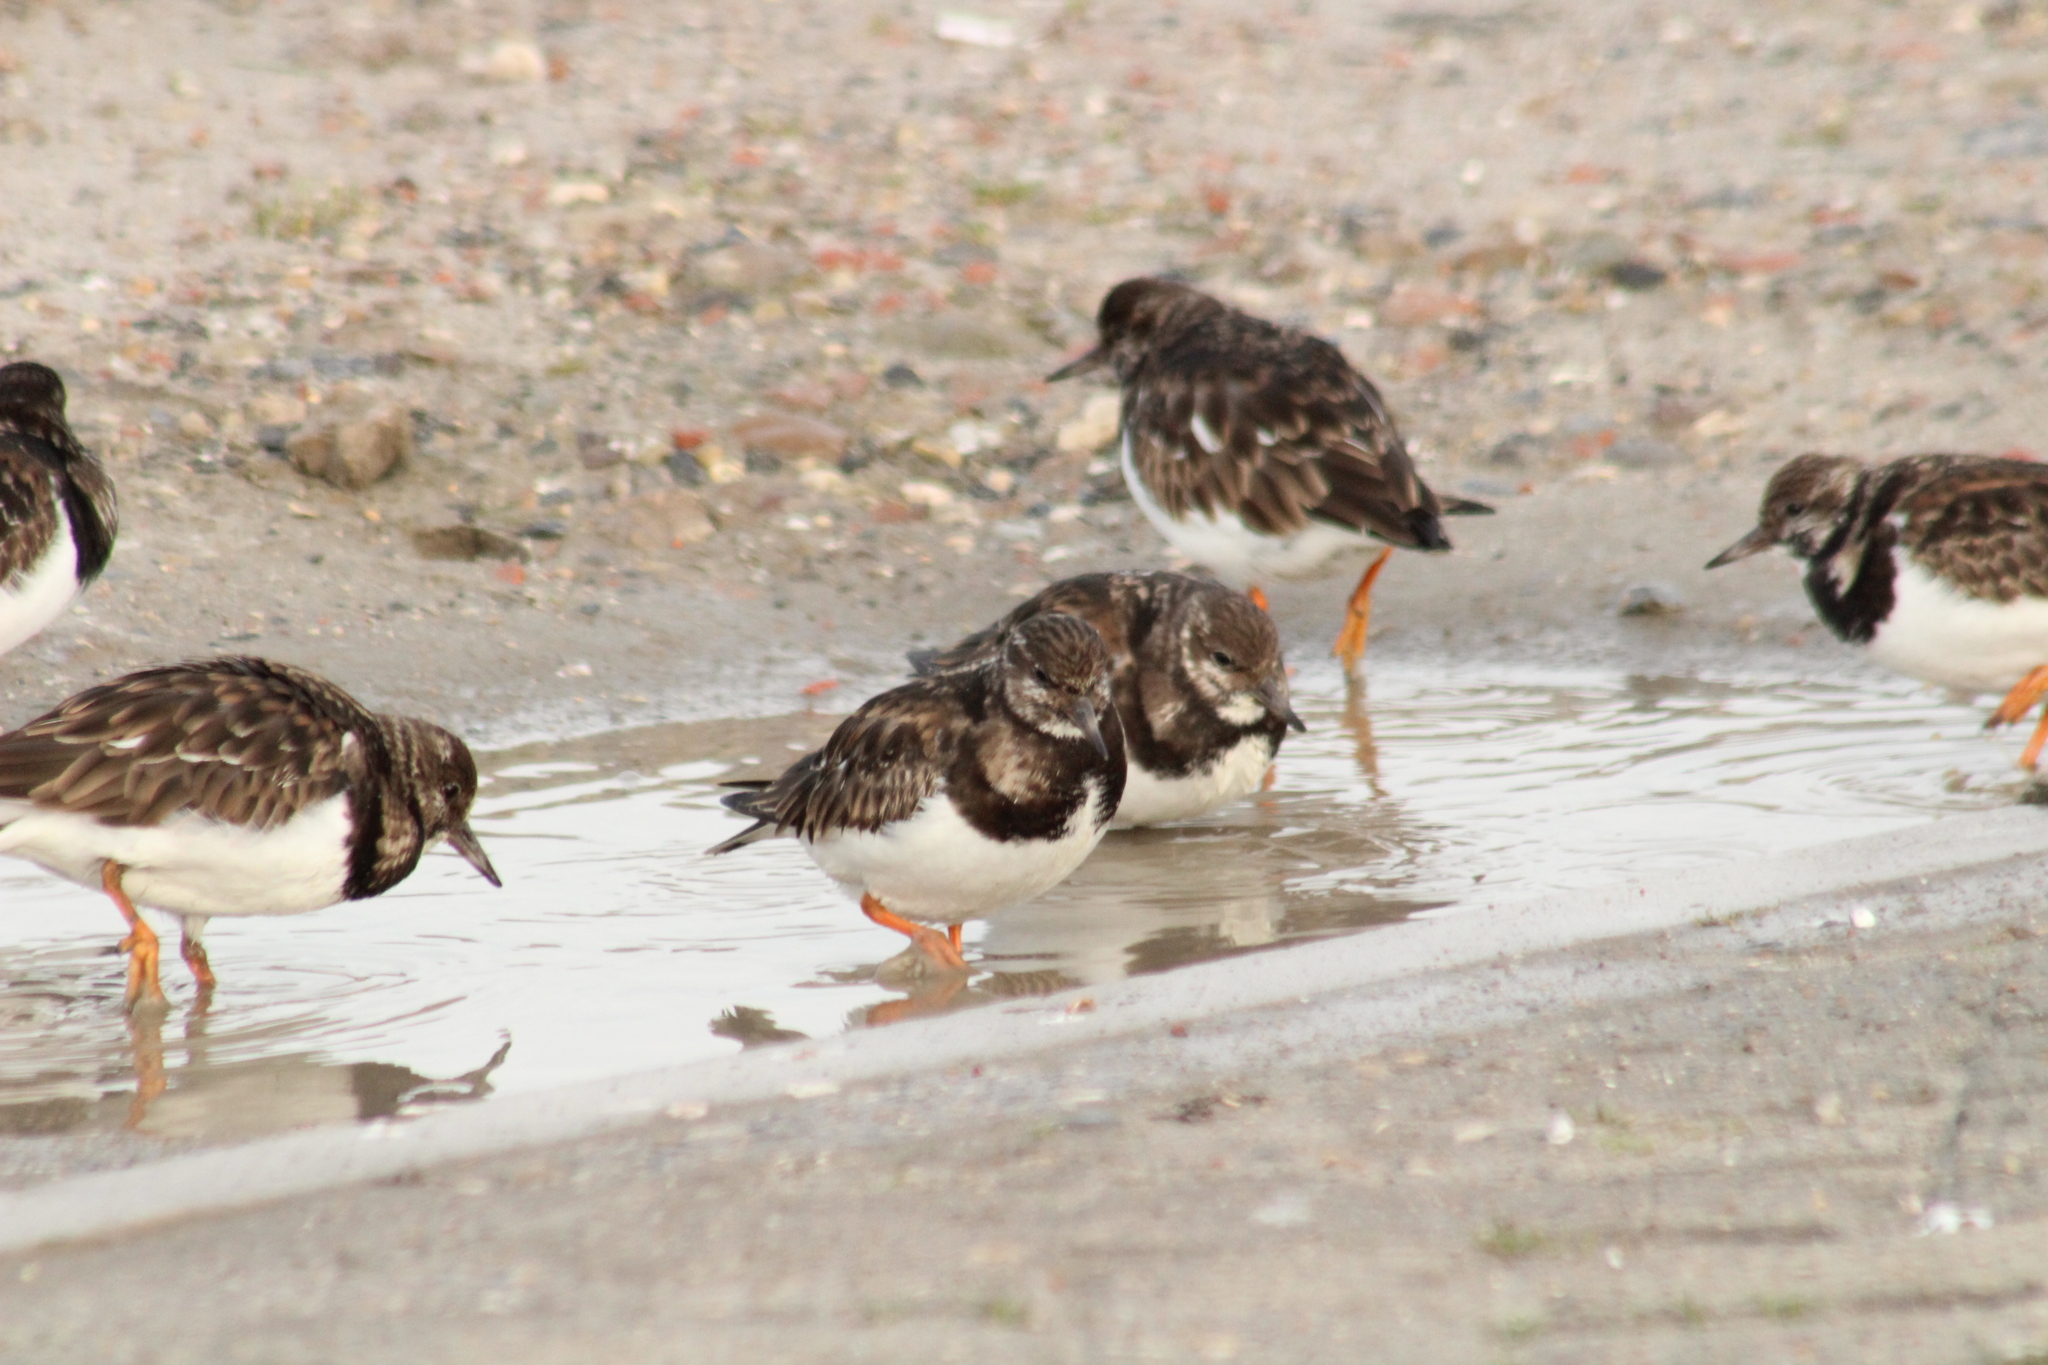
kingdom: Animalia
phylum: Chordata
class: Aves
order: Charadriiformes
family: Scolopacidae
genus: Arenaria
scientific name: Arenaria interpres
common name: Ruddy turnstone
